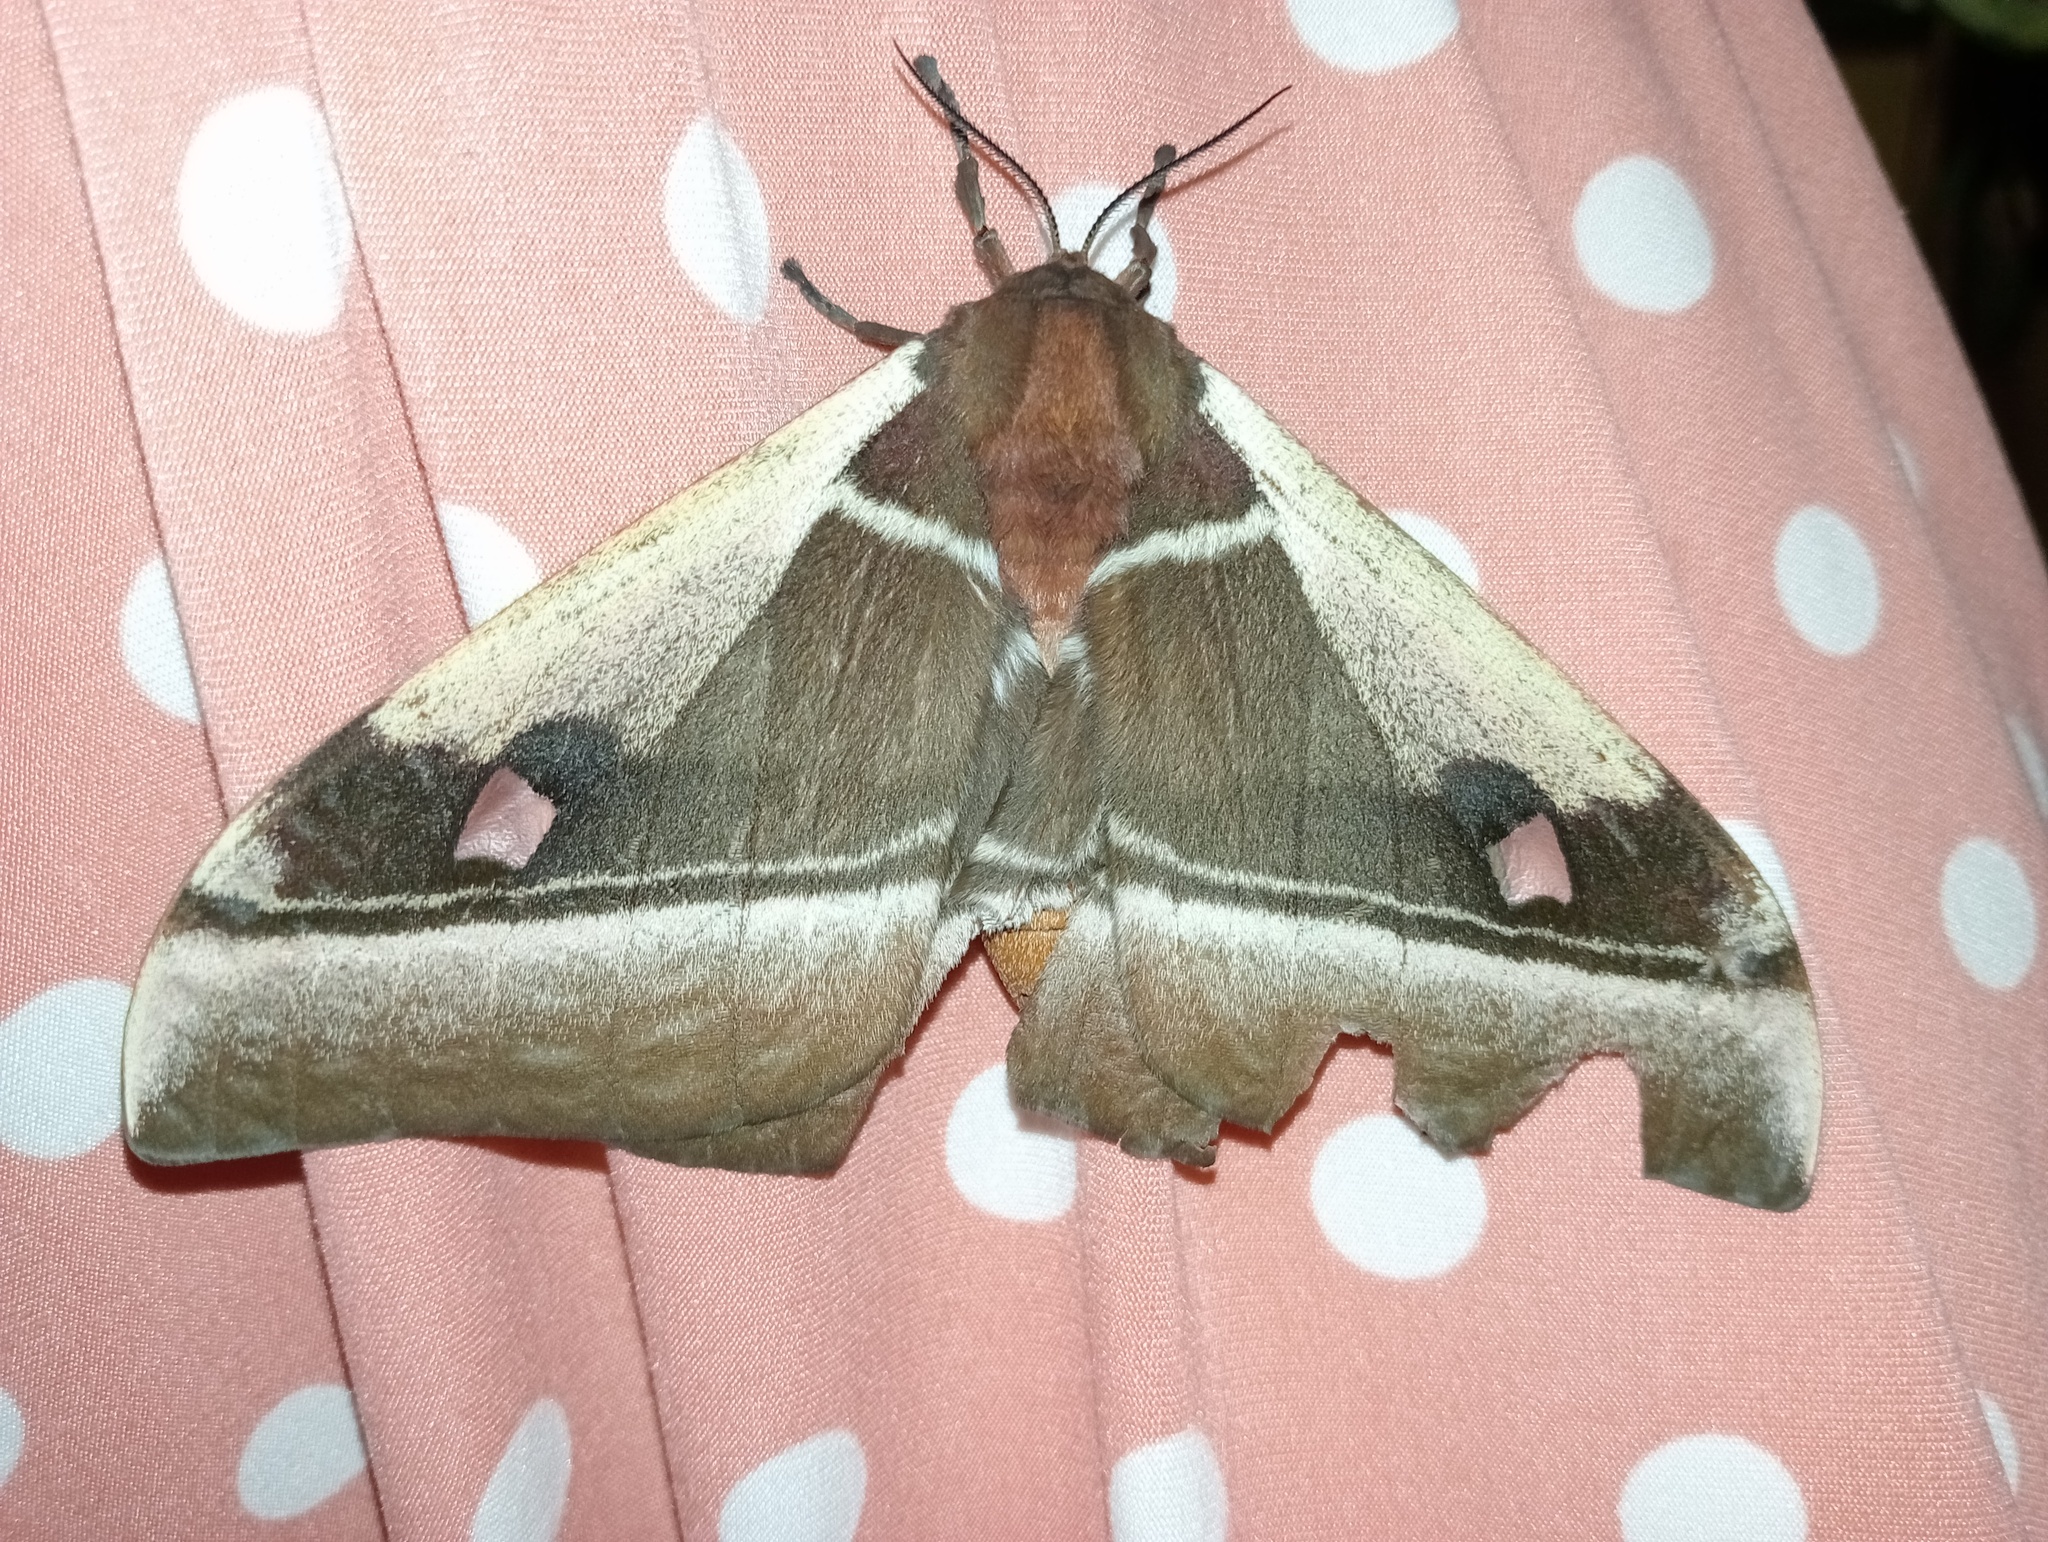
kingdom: Animalia
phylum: Arthropoda
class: Insecta
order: Lepidoptera
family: Saturniidae
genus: Bunaea
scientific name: Bunaea alcinoe
